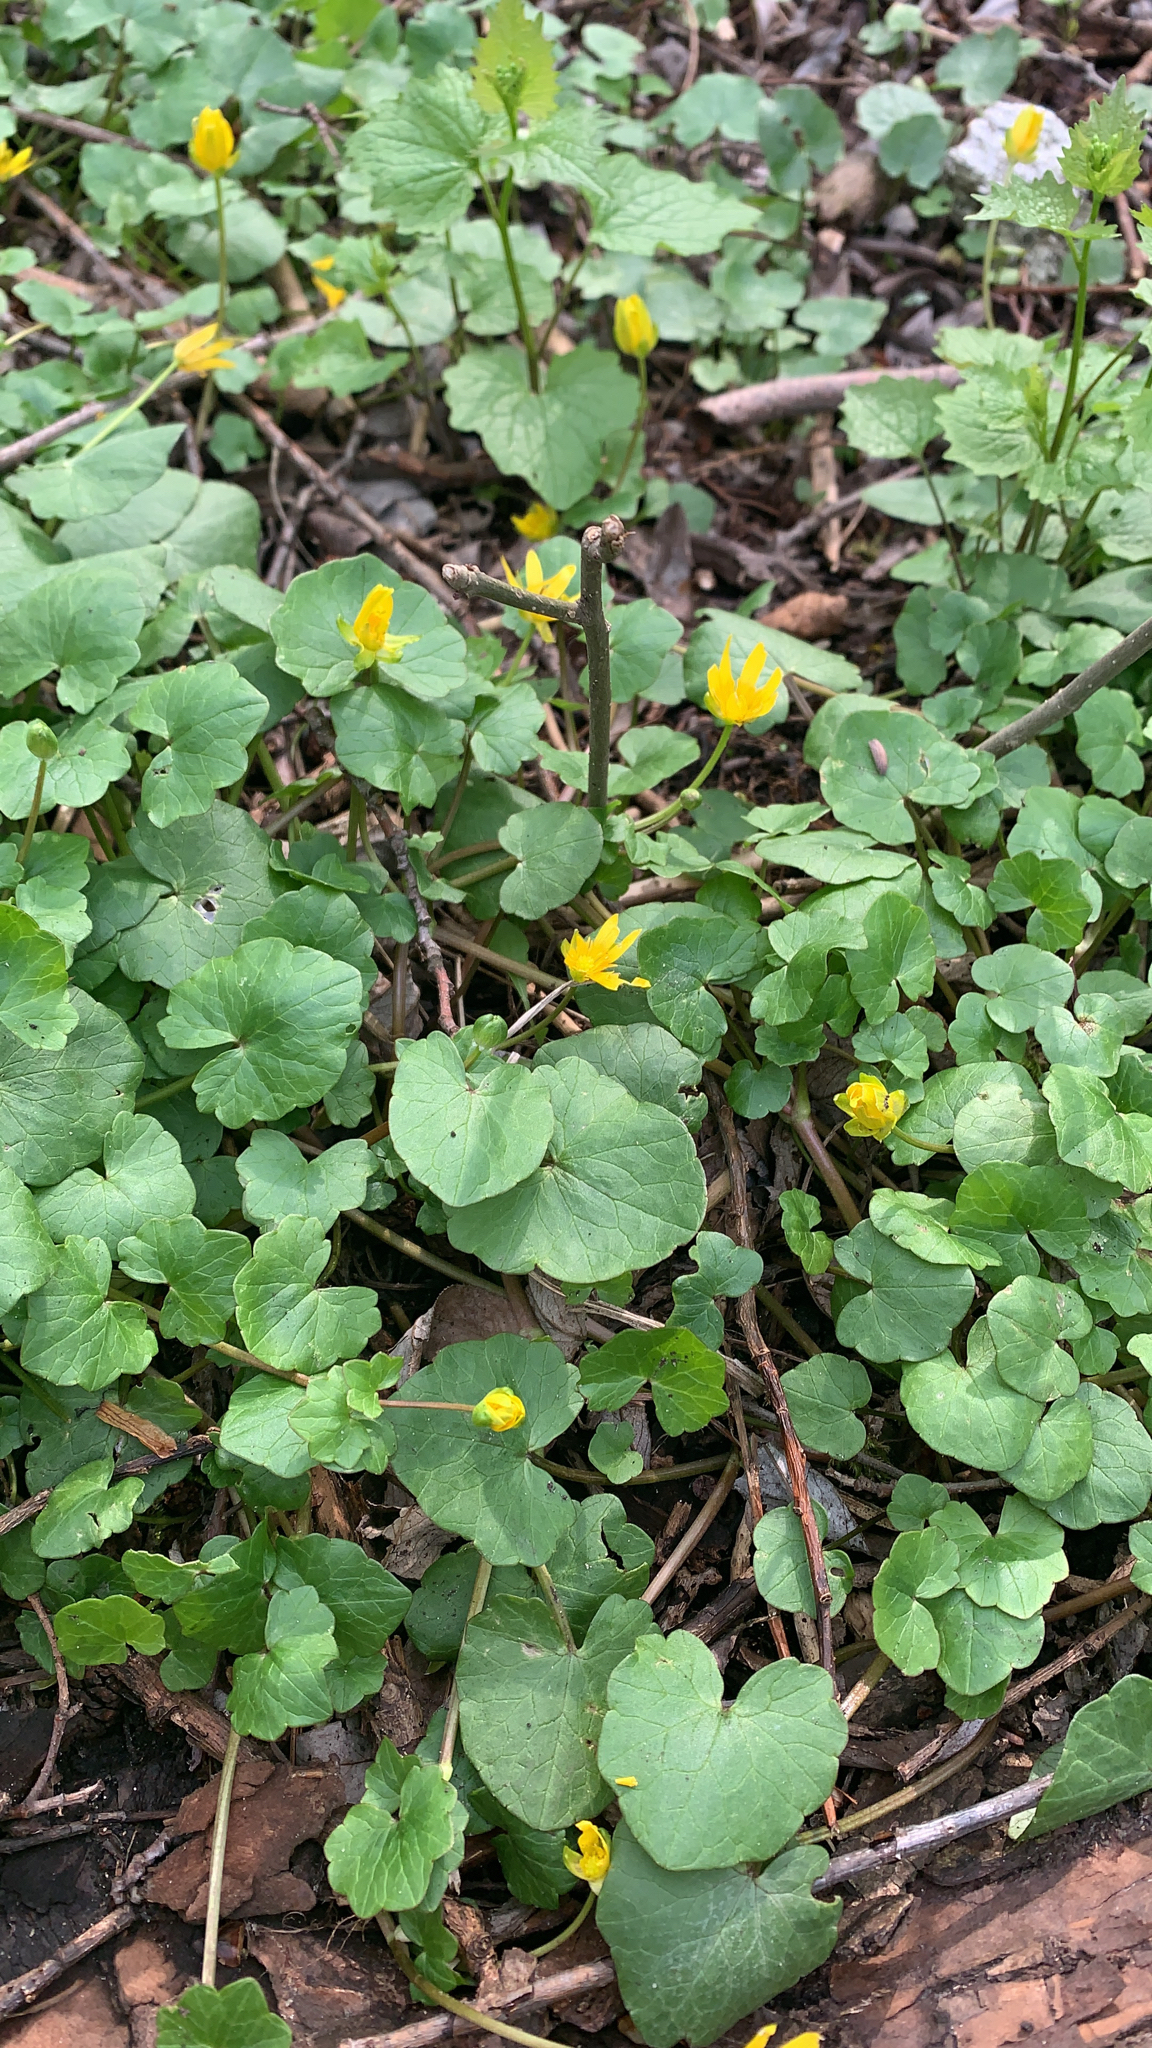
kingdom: Plantae
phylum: Tracheophyta
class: Magnoliopsida
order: Ranunculales
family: Ranunculaceae
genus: Ficaria
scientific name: Ficaria verna
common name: Lesser celandine
